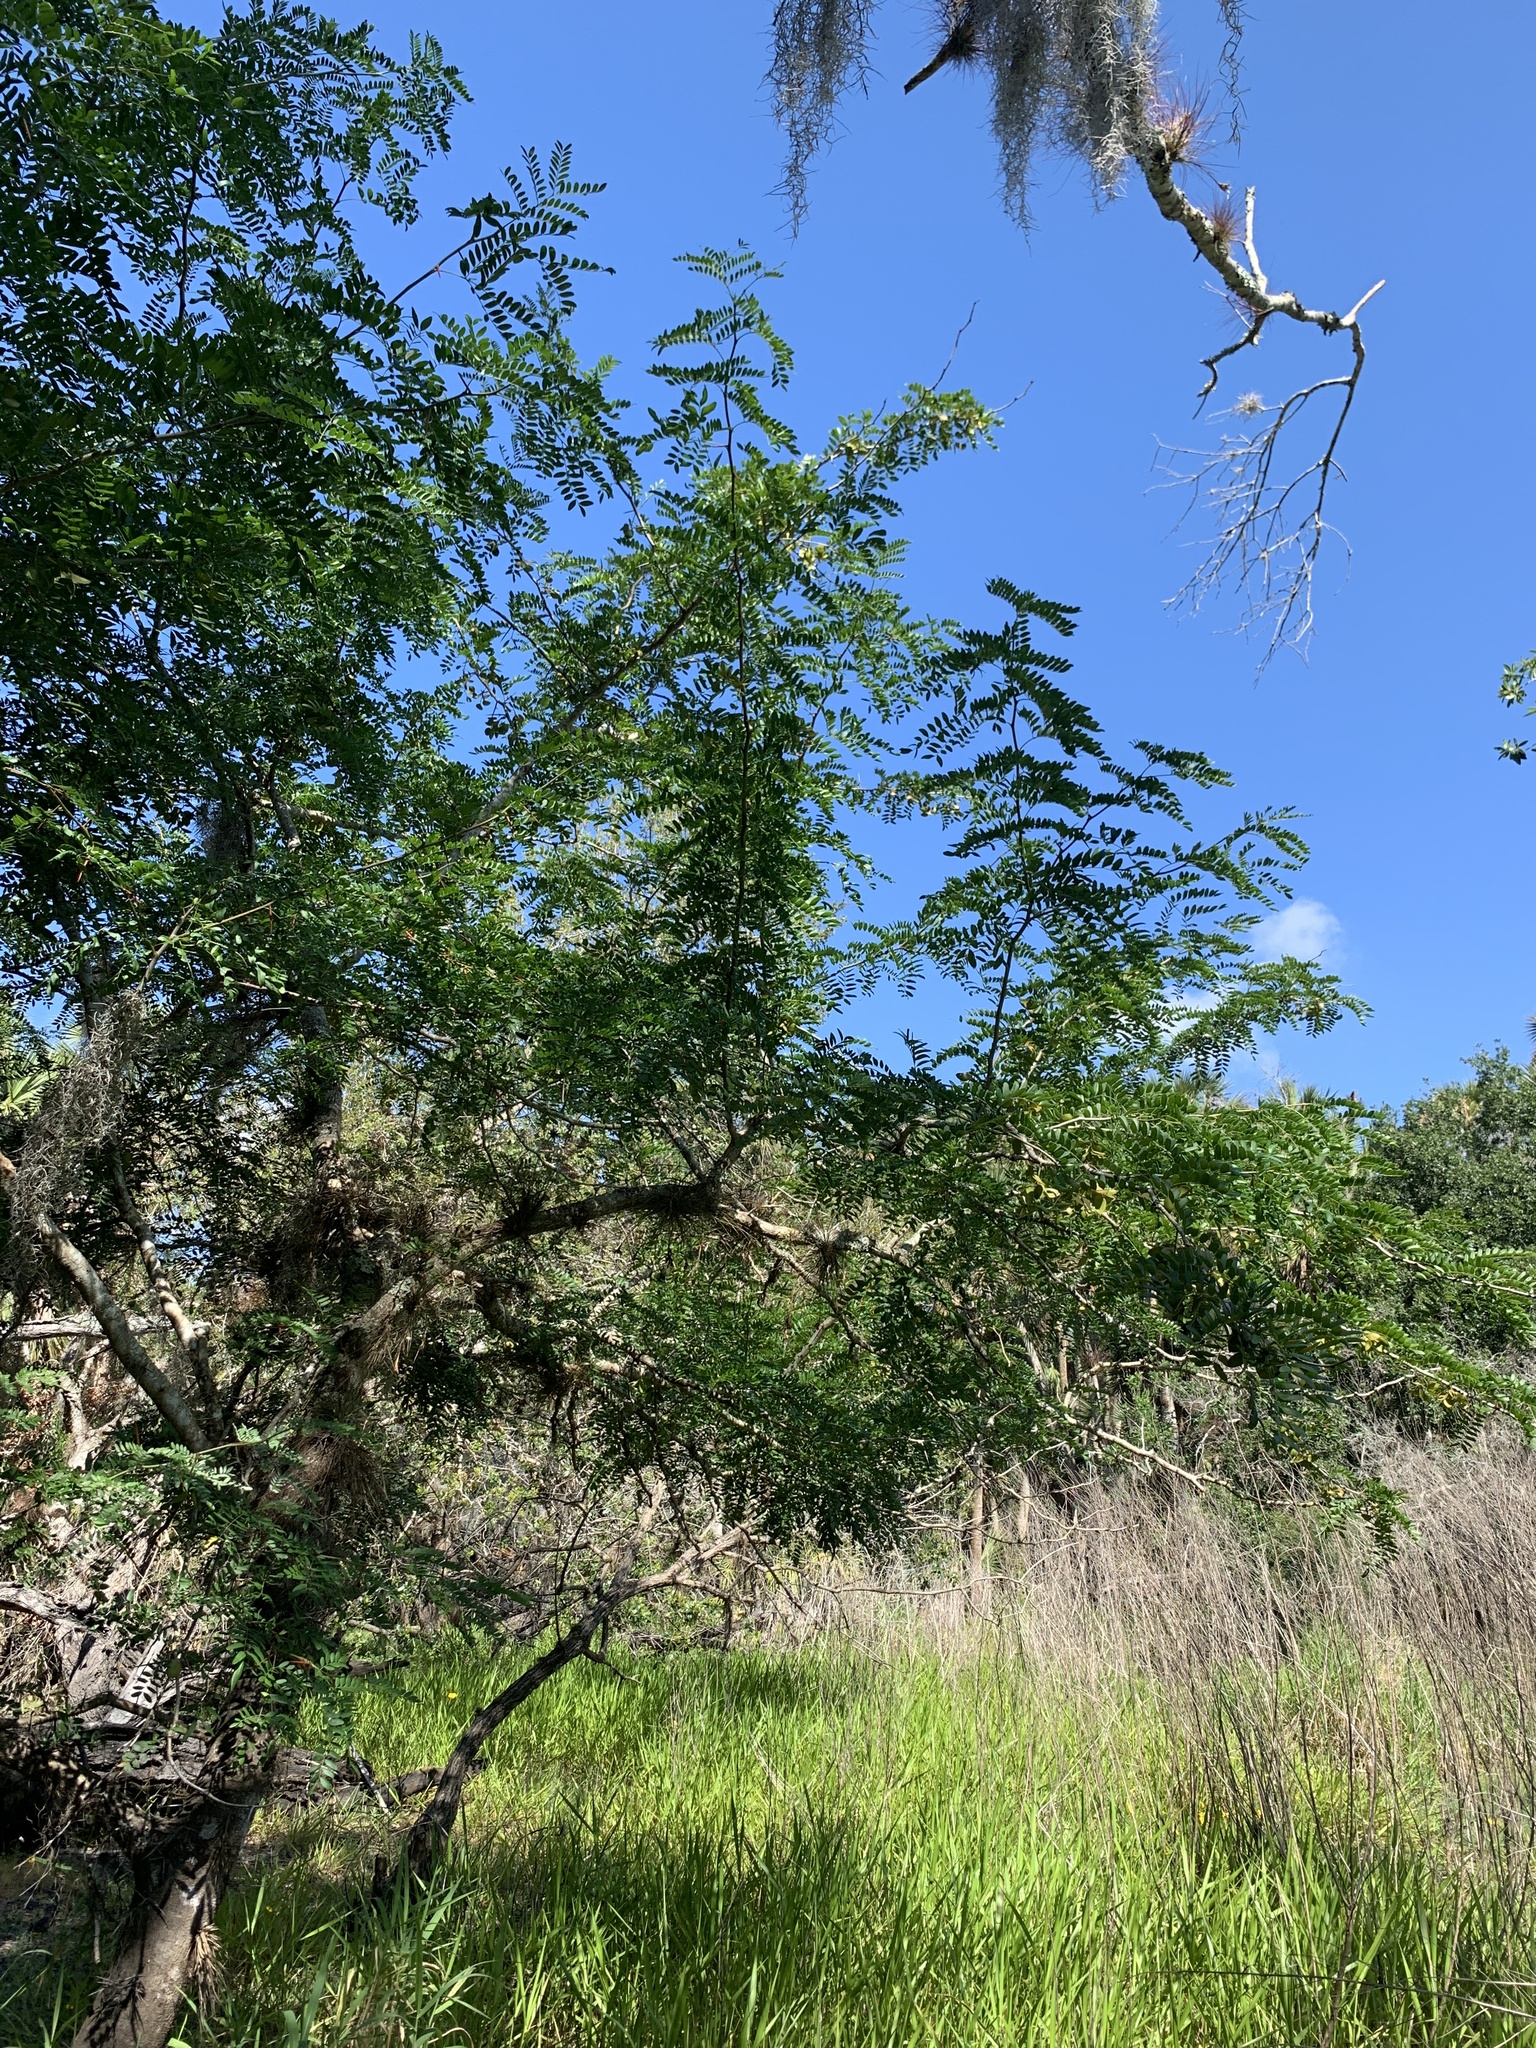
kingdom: Plantae
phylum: Tracheophyta
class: Magnoliopsida
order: Fabales
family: Fabaceae
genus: Gleditsia
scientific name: Gleditsia aquatica
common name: Swamp-locust
